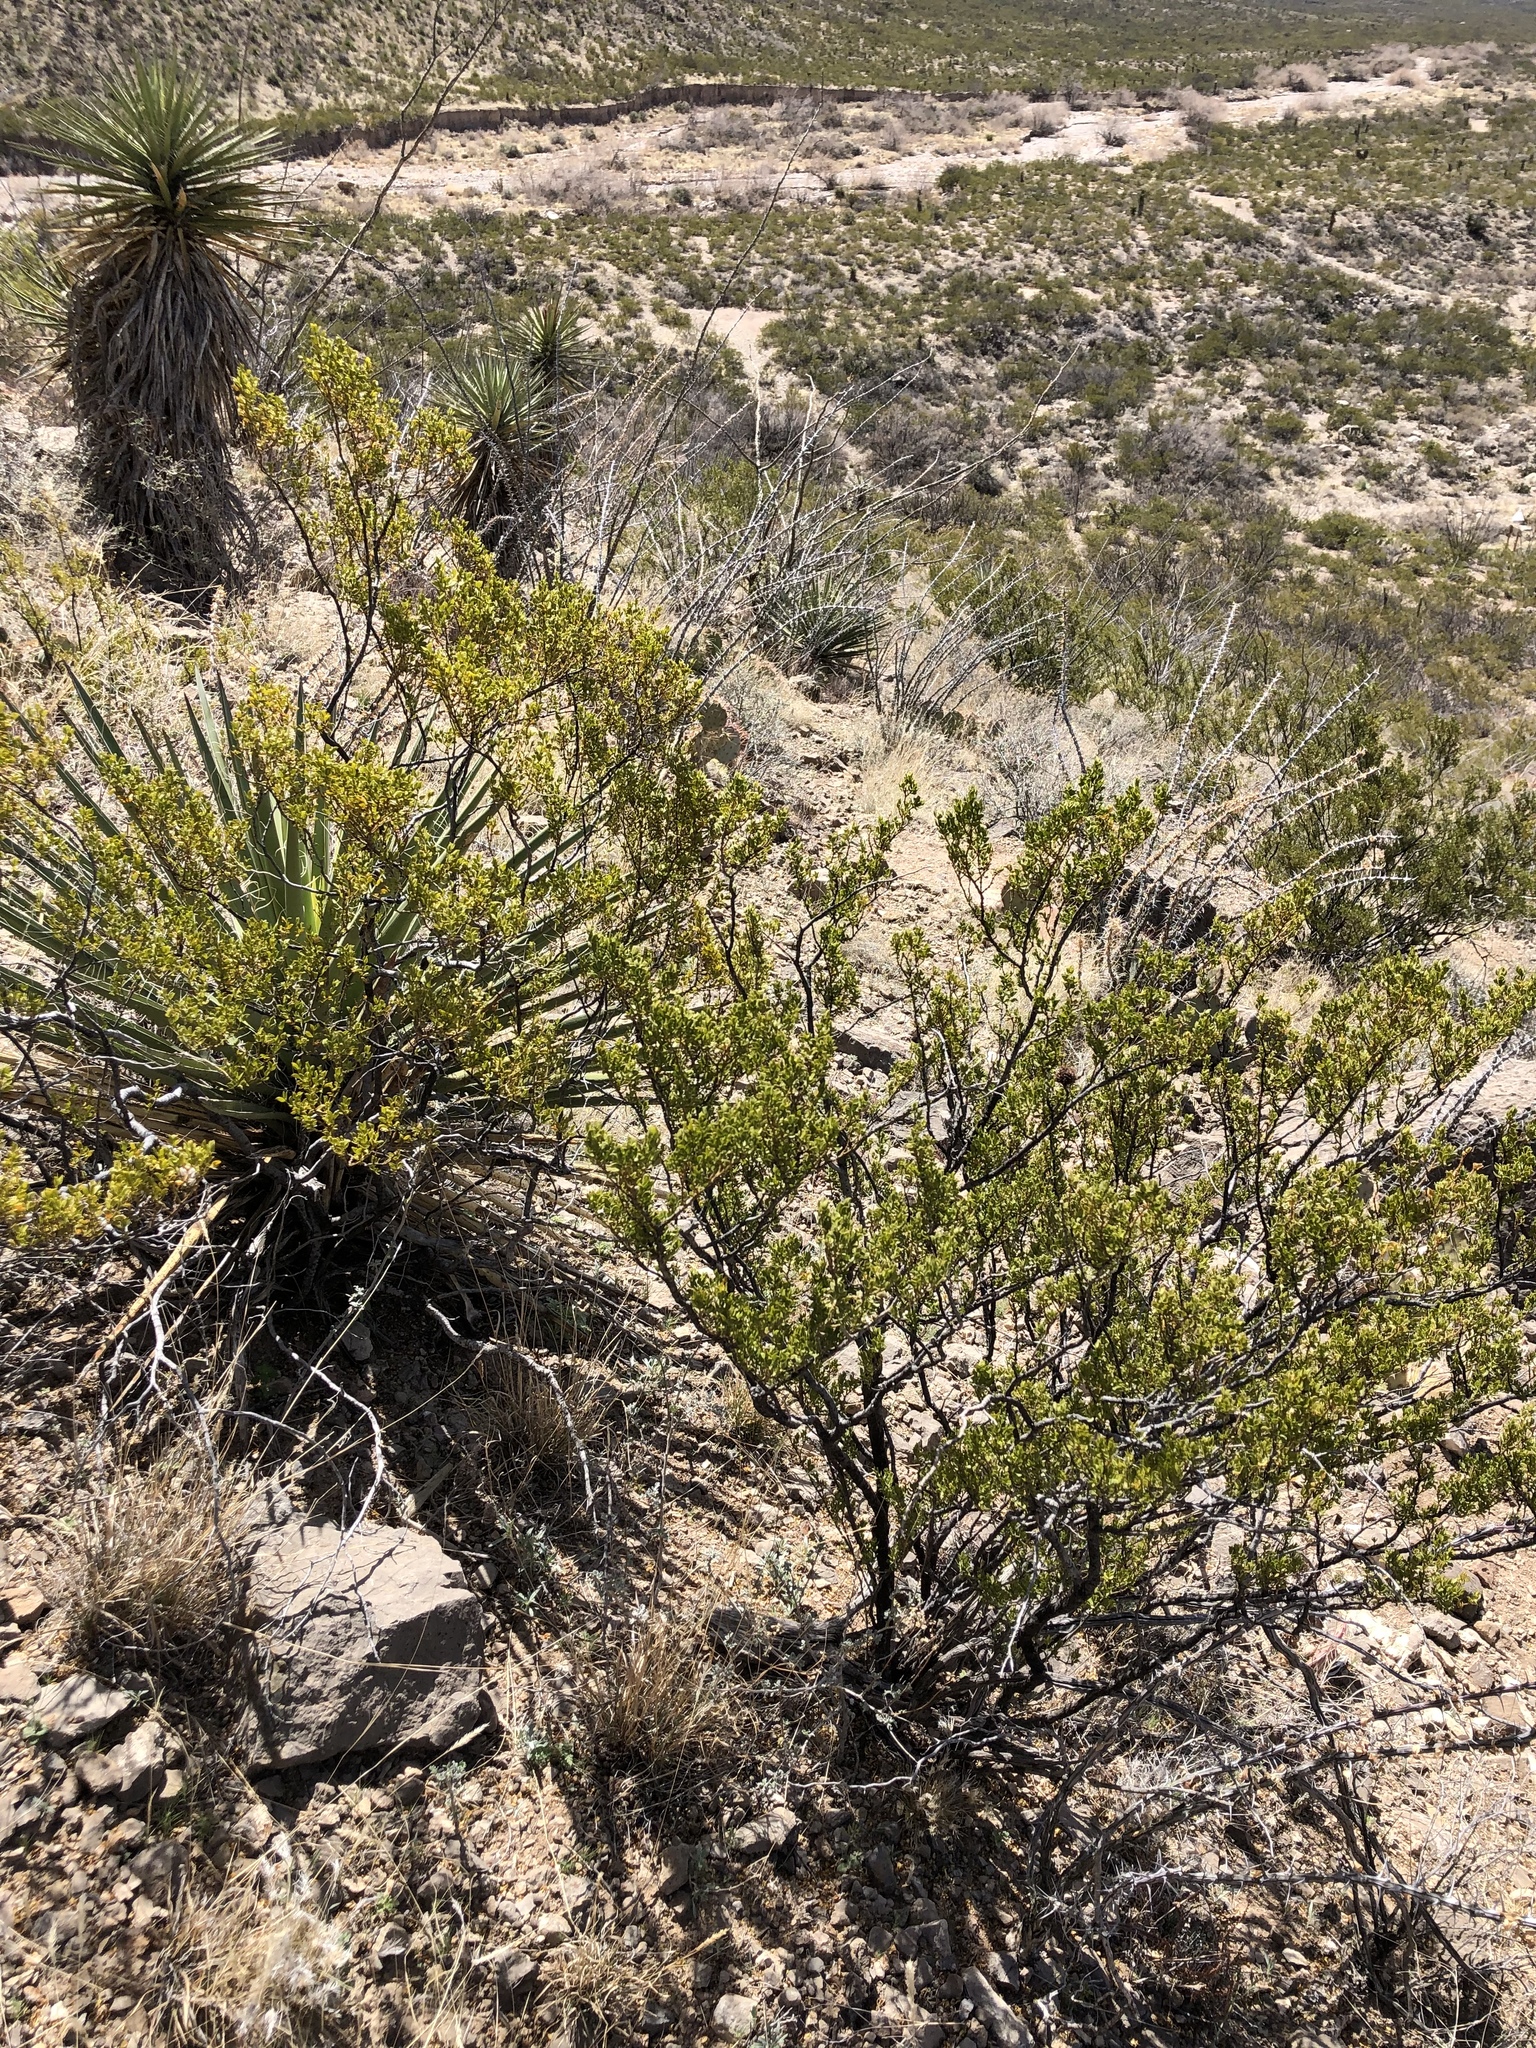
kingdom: Plantae
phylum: Tracheophyta
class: Magnoliopsida
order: Zygophyllales
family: Zygophyllaceae
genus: Larrea
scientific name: Larrea tridentata
